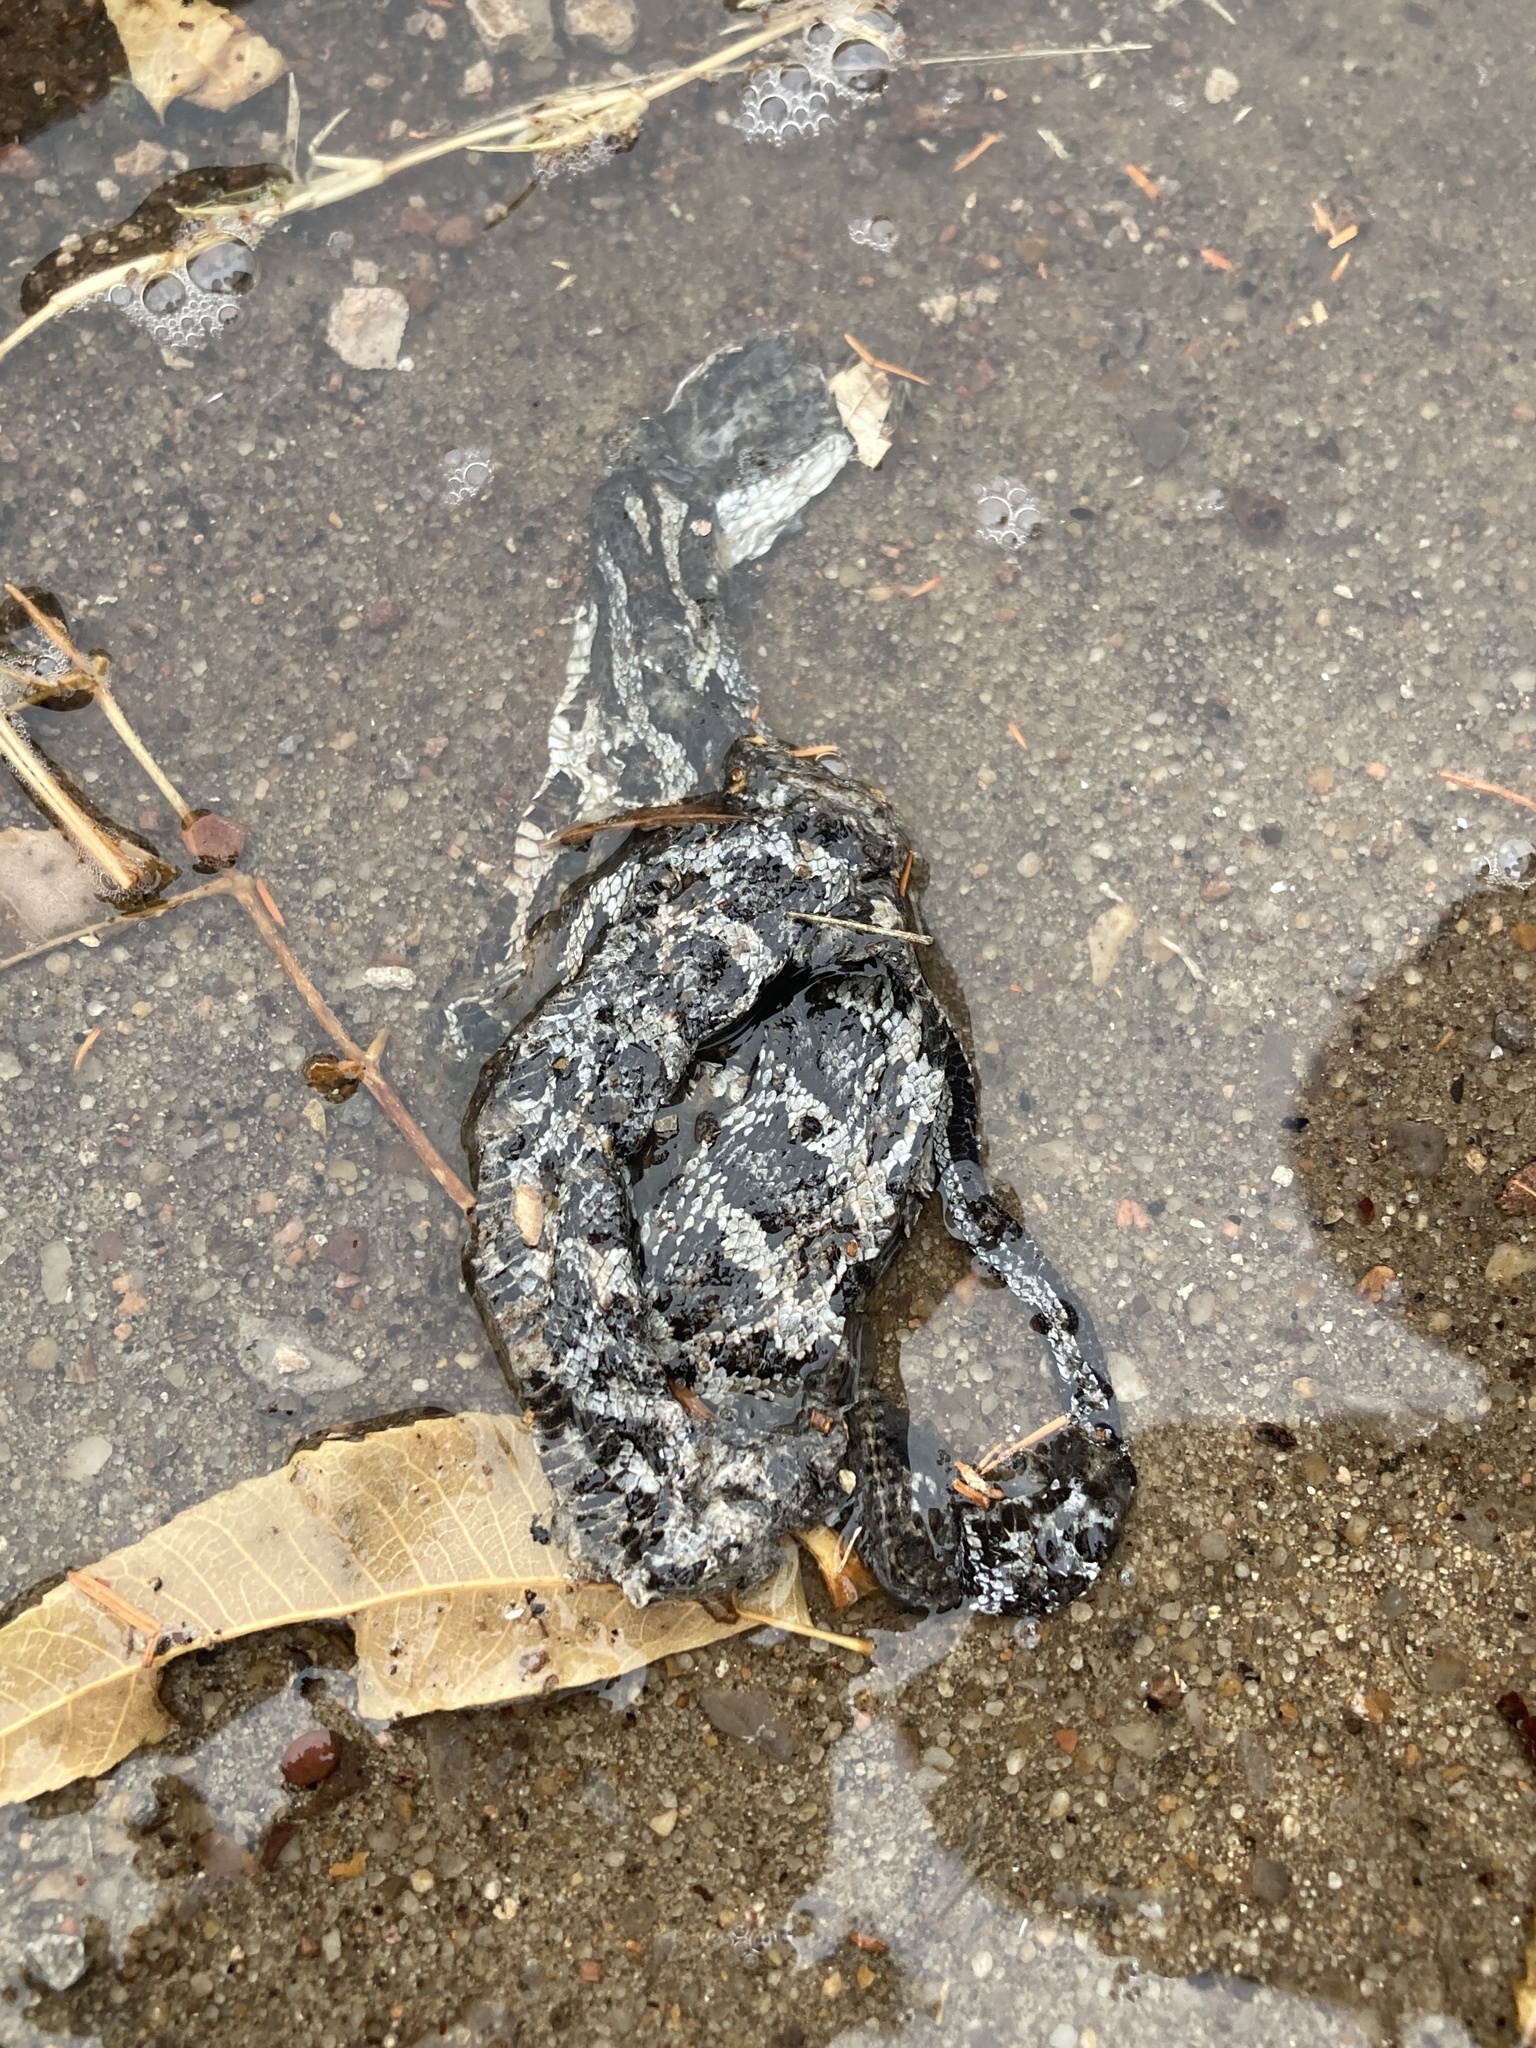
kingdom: Animalia
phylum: Chordata
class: Squamata
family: Colubridae
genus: Pantherophis
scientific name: Pantherophis obsoletus
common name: Black rat snake
